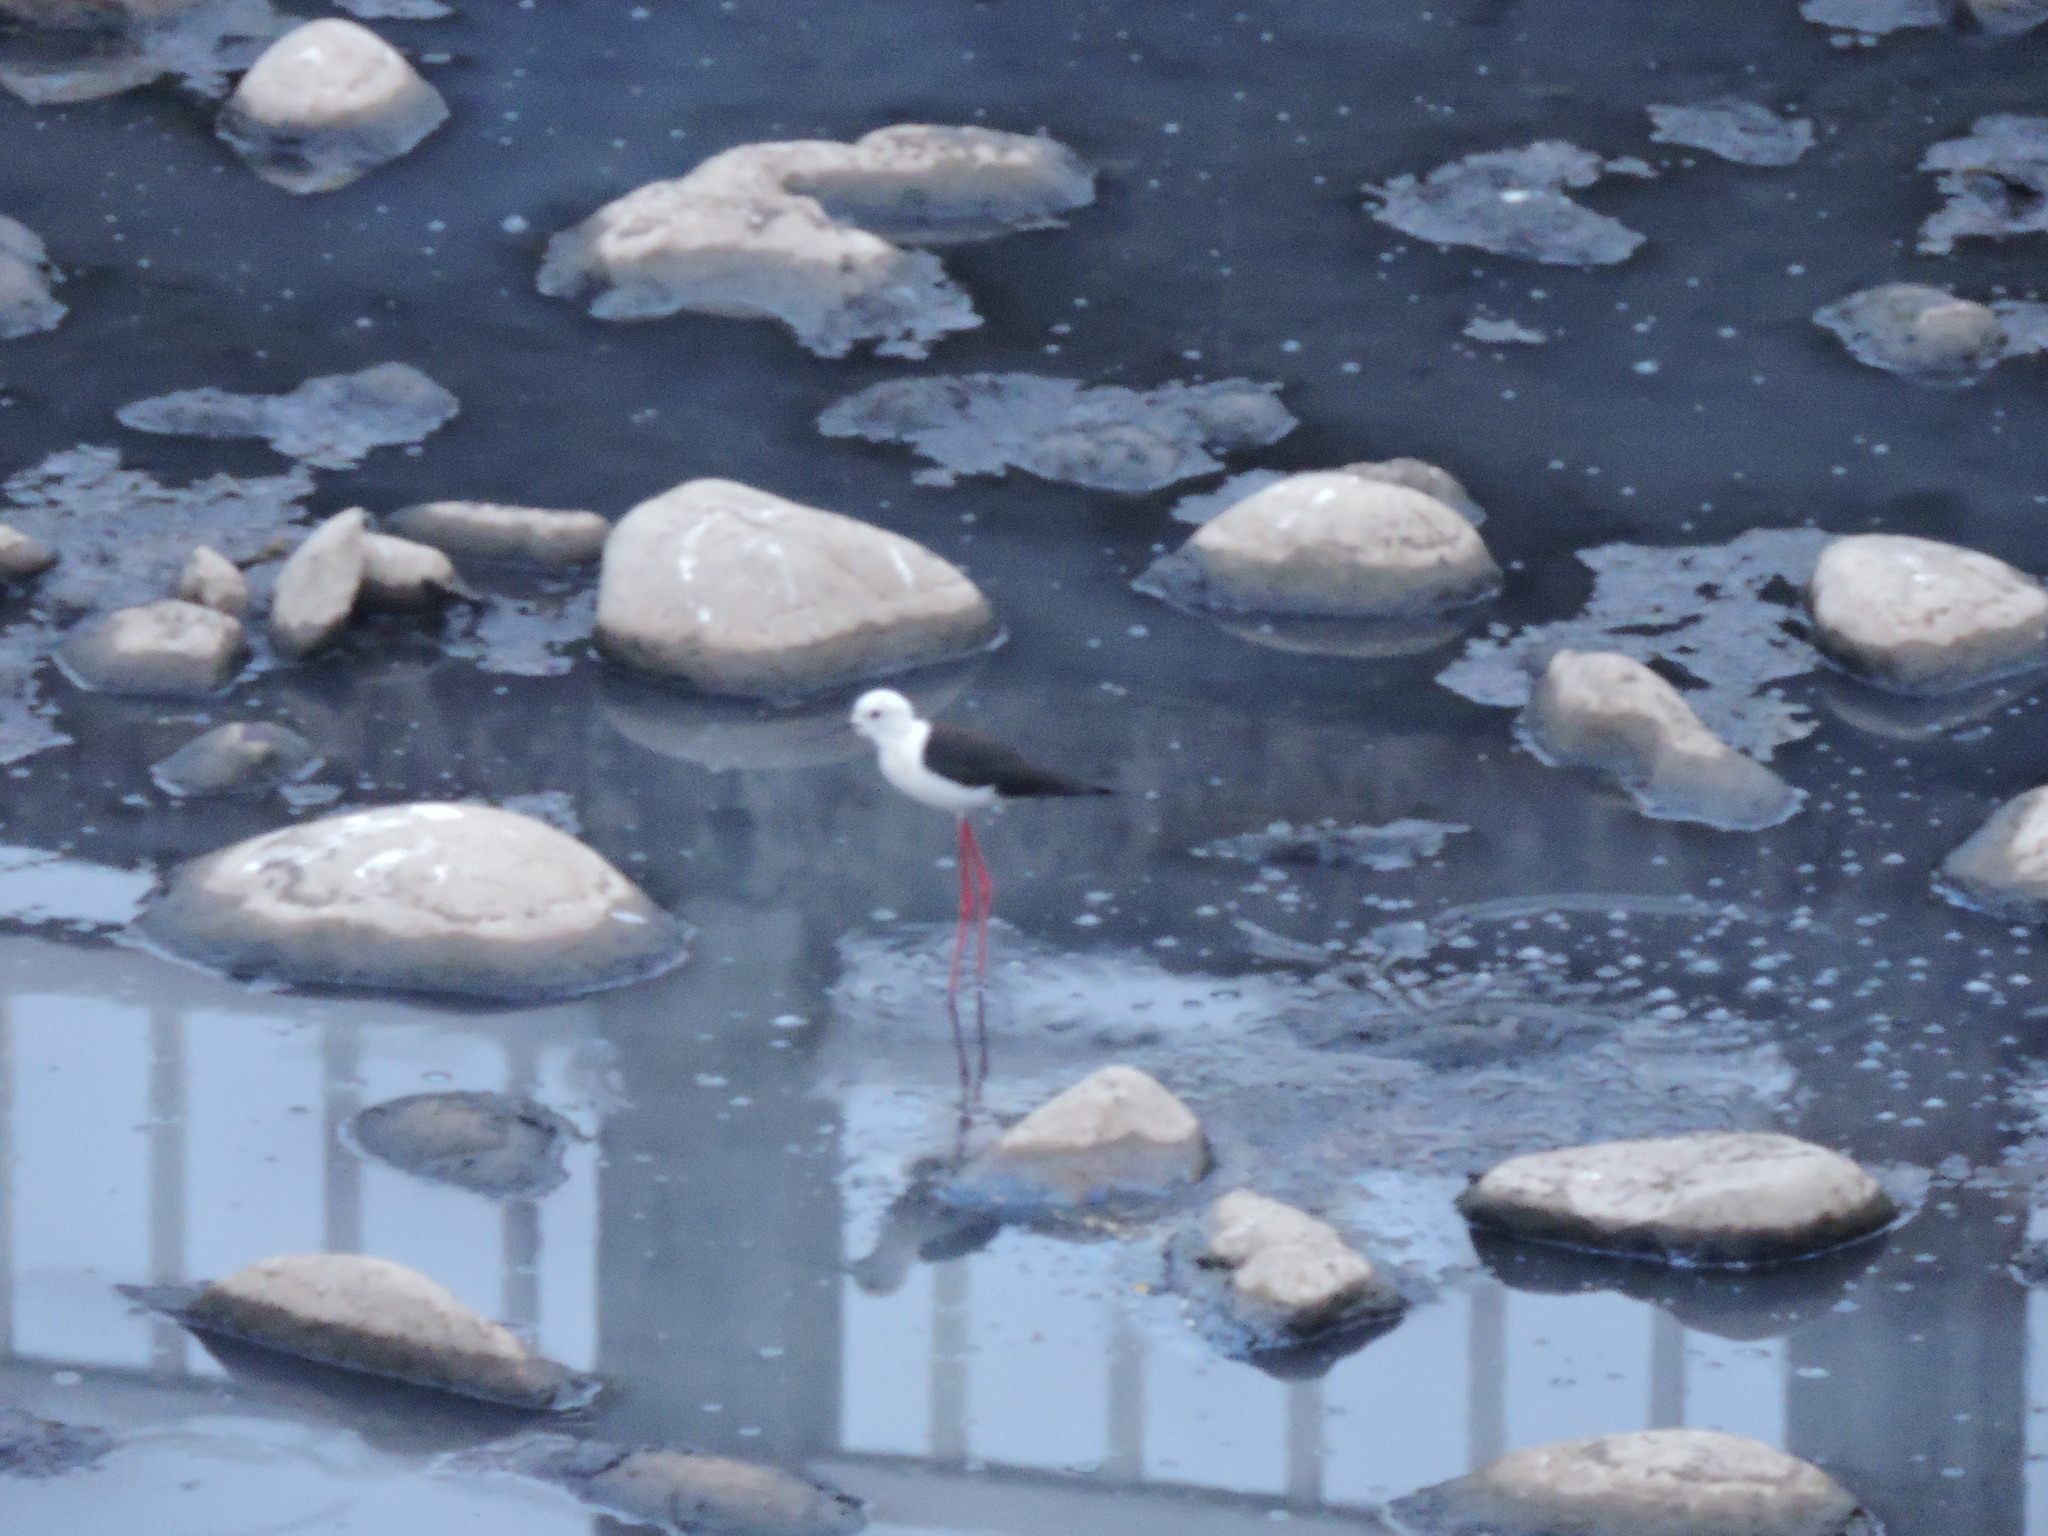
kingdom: Animalia
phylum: Chordata
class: Aves
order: Charadriiformes
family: Recurvirostridae
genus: Himantopus
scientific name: Himantopus himantopus
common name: Black-winged stilt
